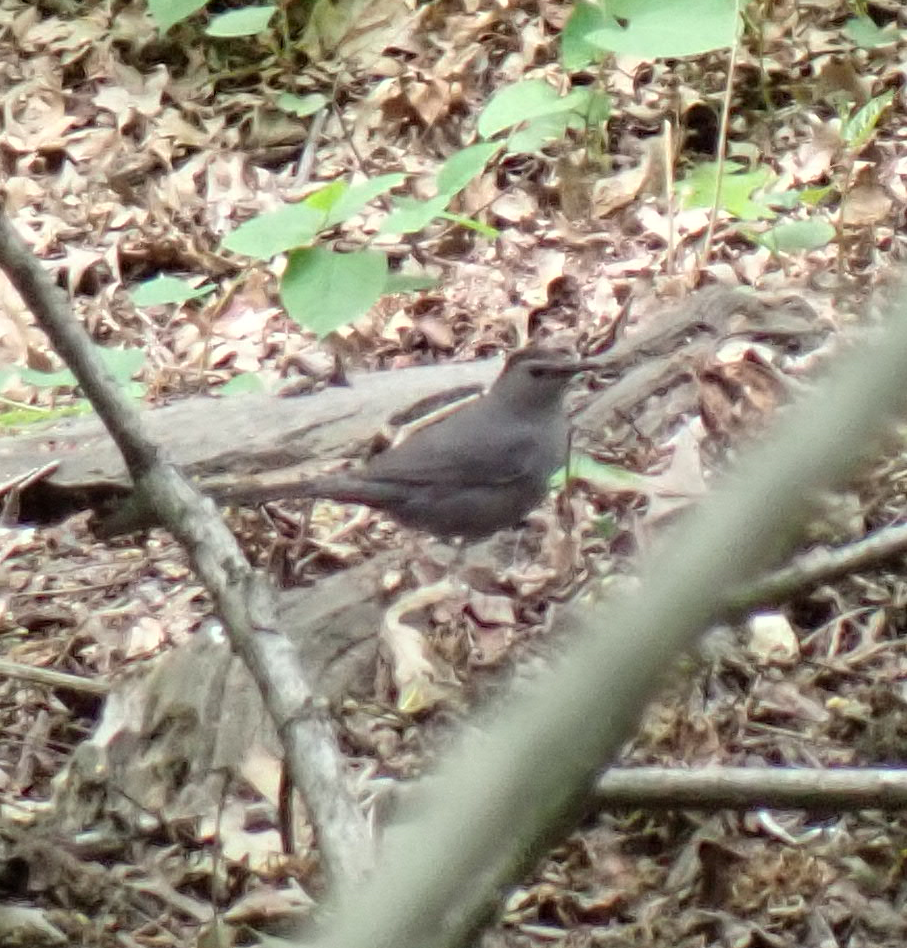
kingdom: Animalia
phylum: Chordata
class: Aves
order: Passeriformes
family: Mimidae
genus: Dumetella
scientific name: Dumetella carolinensis
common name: Gray catbird
